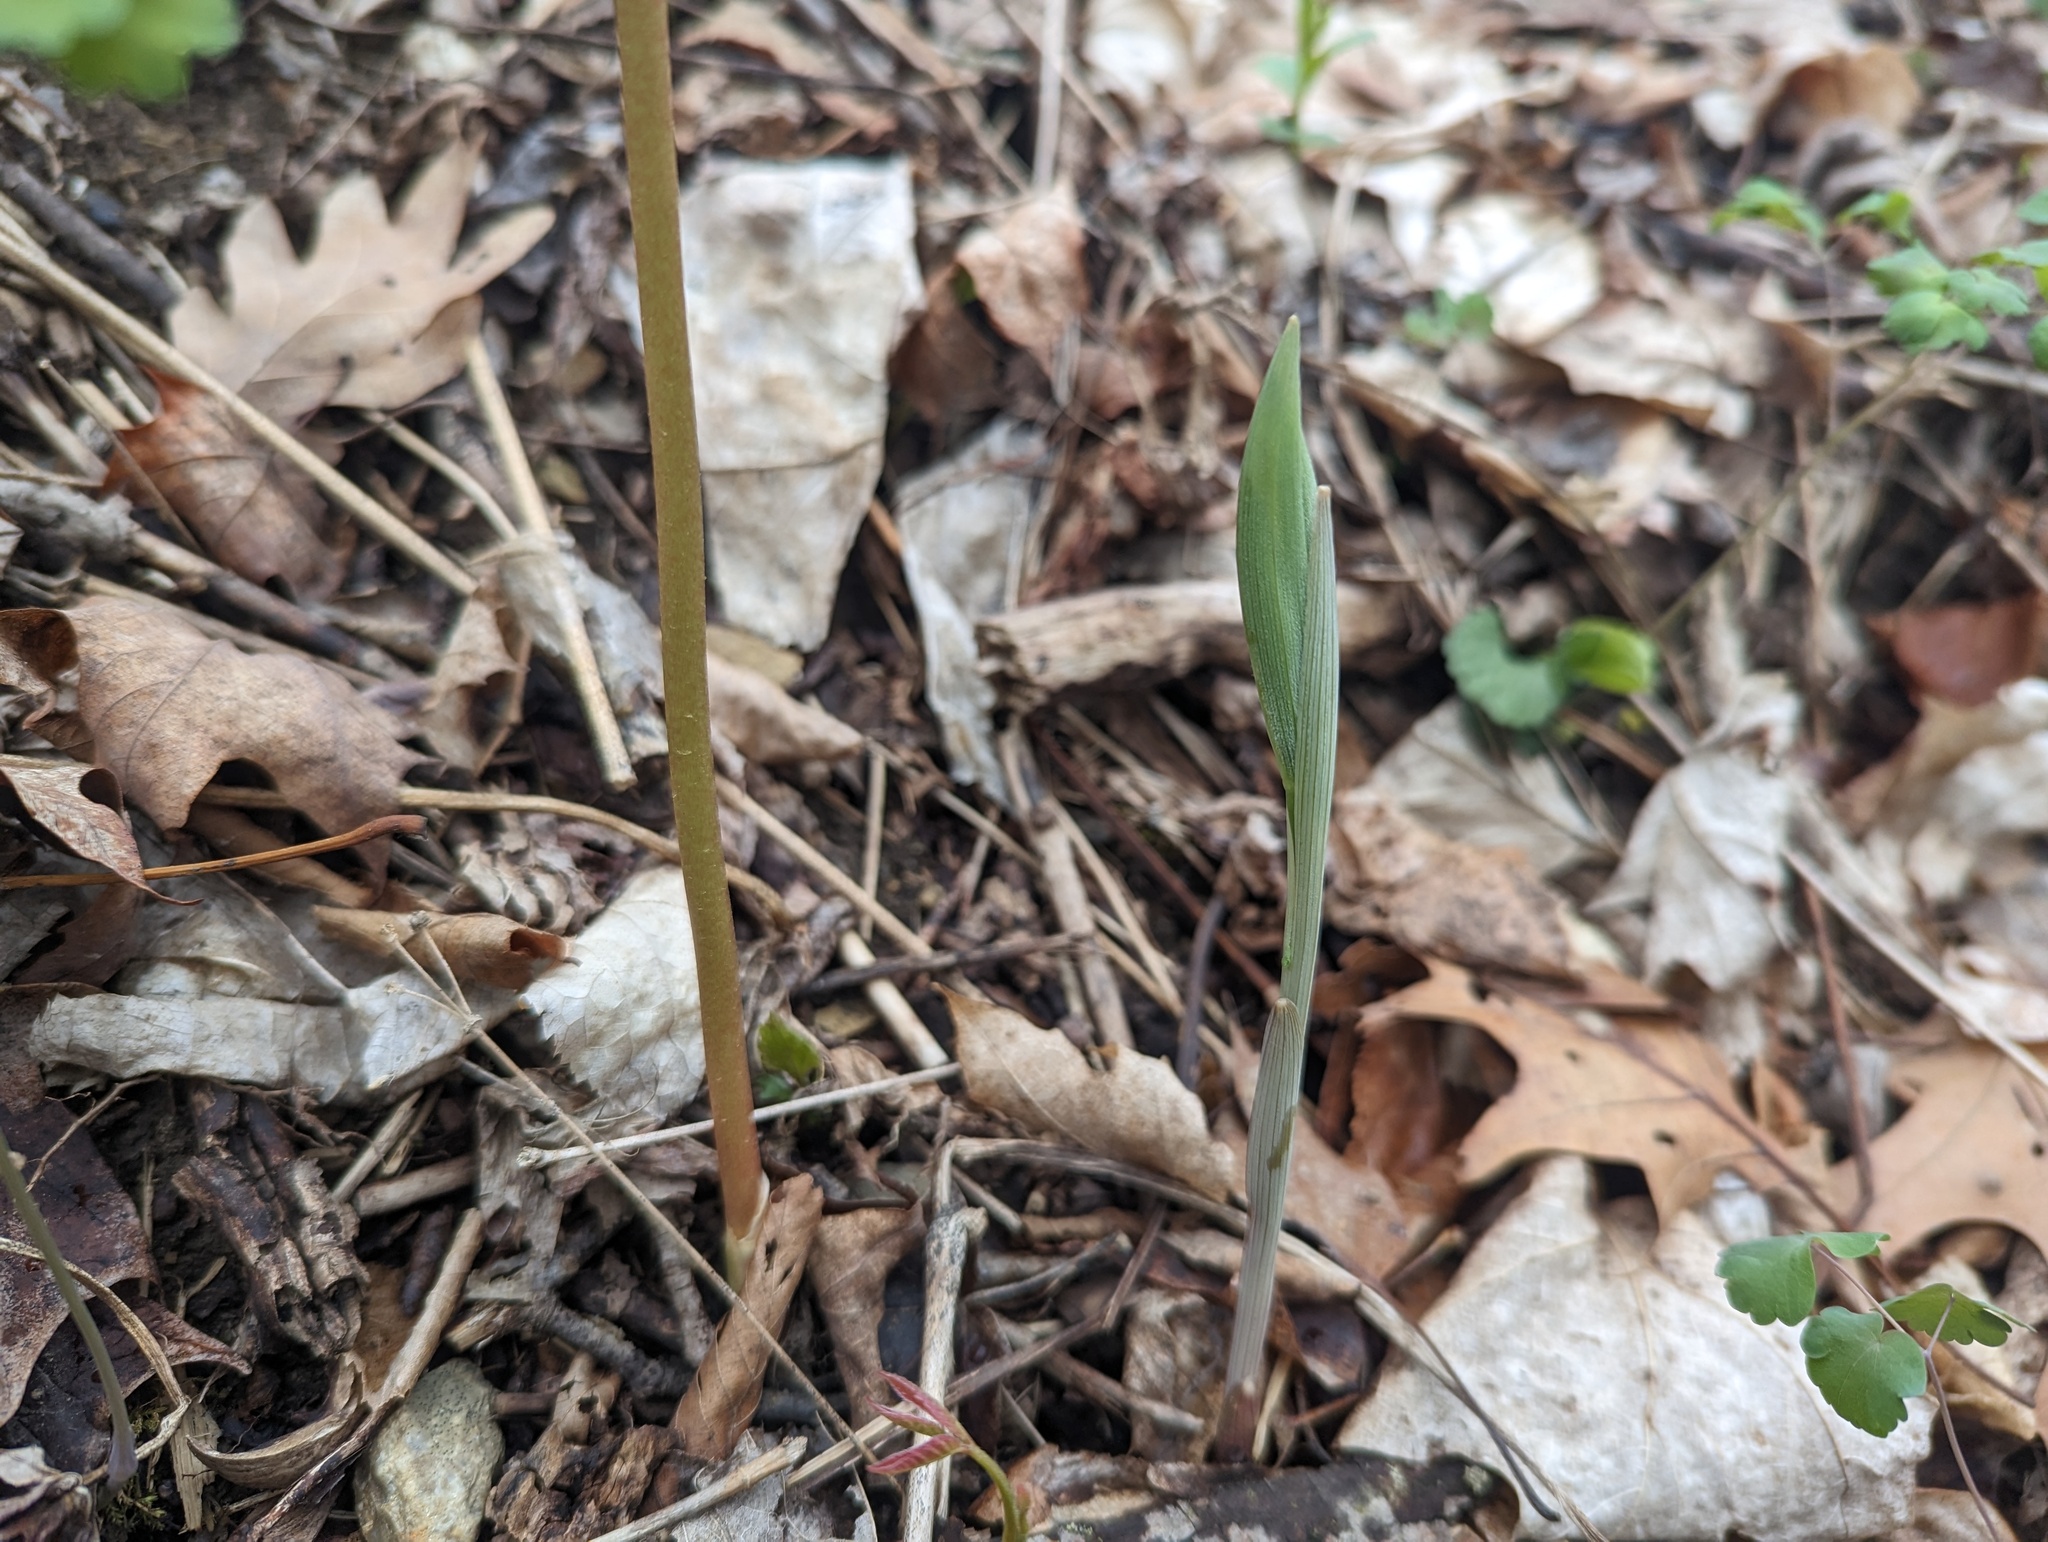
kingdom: Plantae
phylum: Tracheophyta
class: Liliopsida
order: Liliales
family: Colchicaceae
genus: Uvularia
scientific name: Uvularia grandiflora
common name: Bellwort
